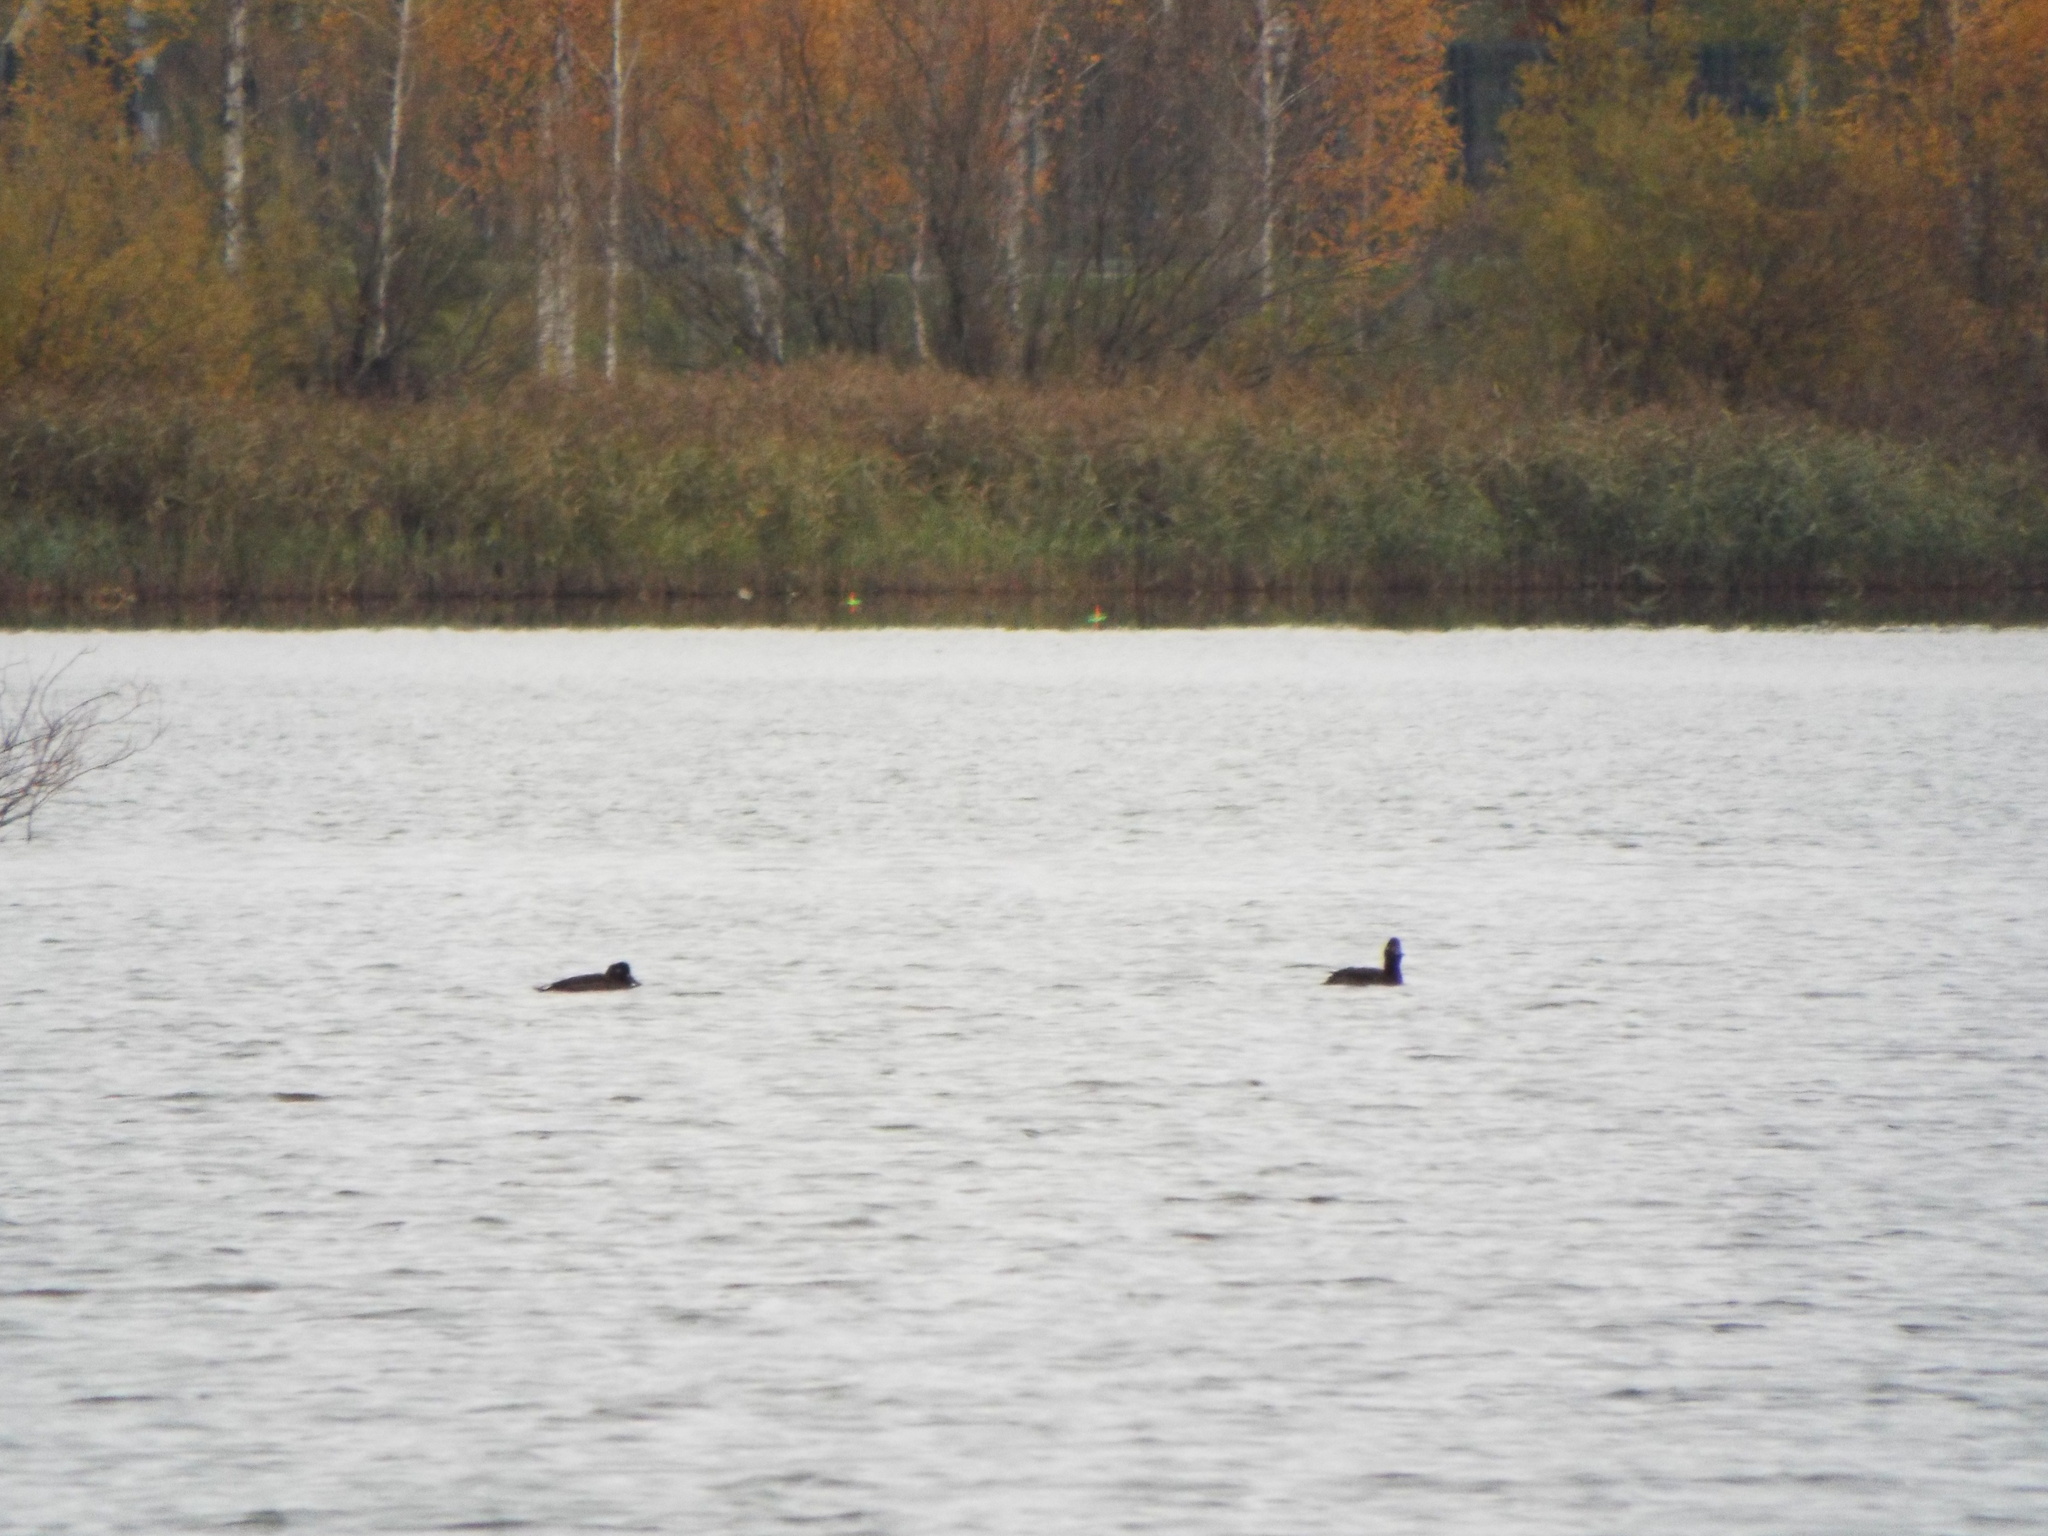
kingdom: Animalia
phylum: Chordata
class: Aves
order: Anseriformes
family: Anatidae
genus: Melanitta
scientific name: Melanitta fusca
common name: Velvet scoter
